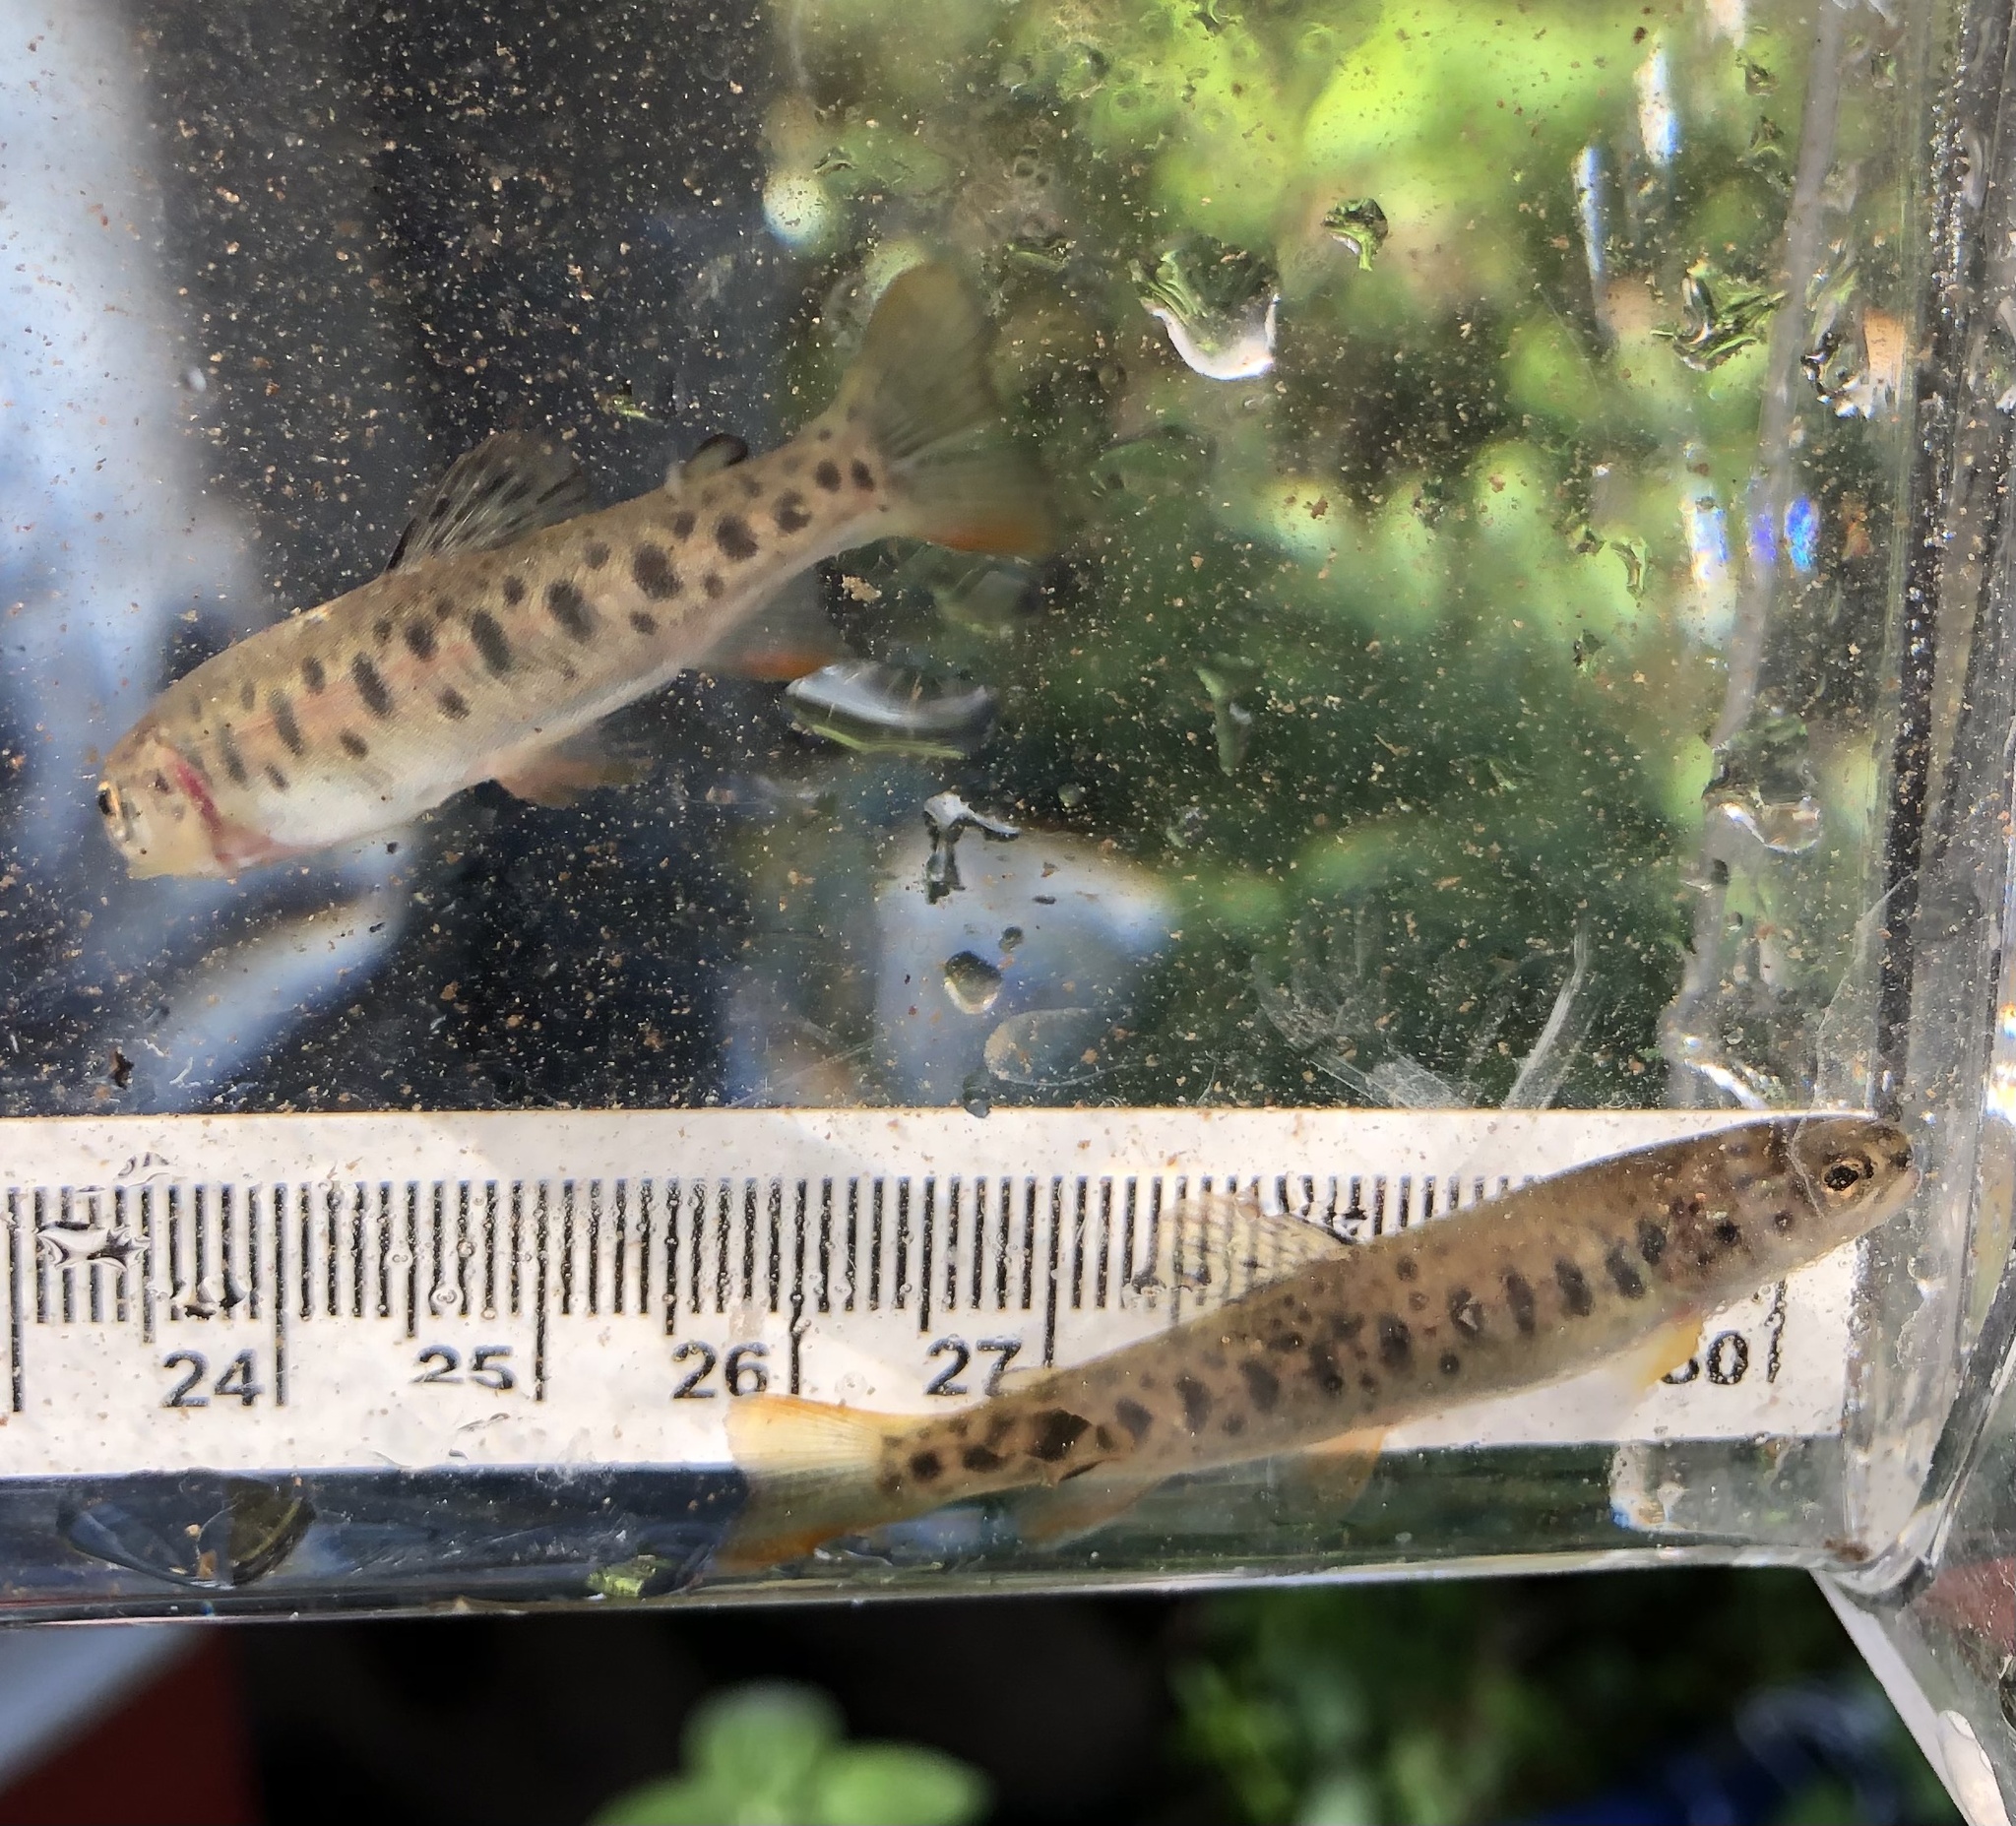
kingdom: Animalia
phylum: Chordata
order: Salmoniformes
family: Salmonidae
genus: Oncorhynchus
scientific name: Oncorhynchus clarkii
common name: Cutthroat trout
